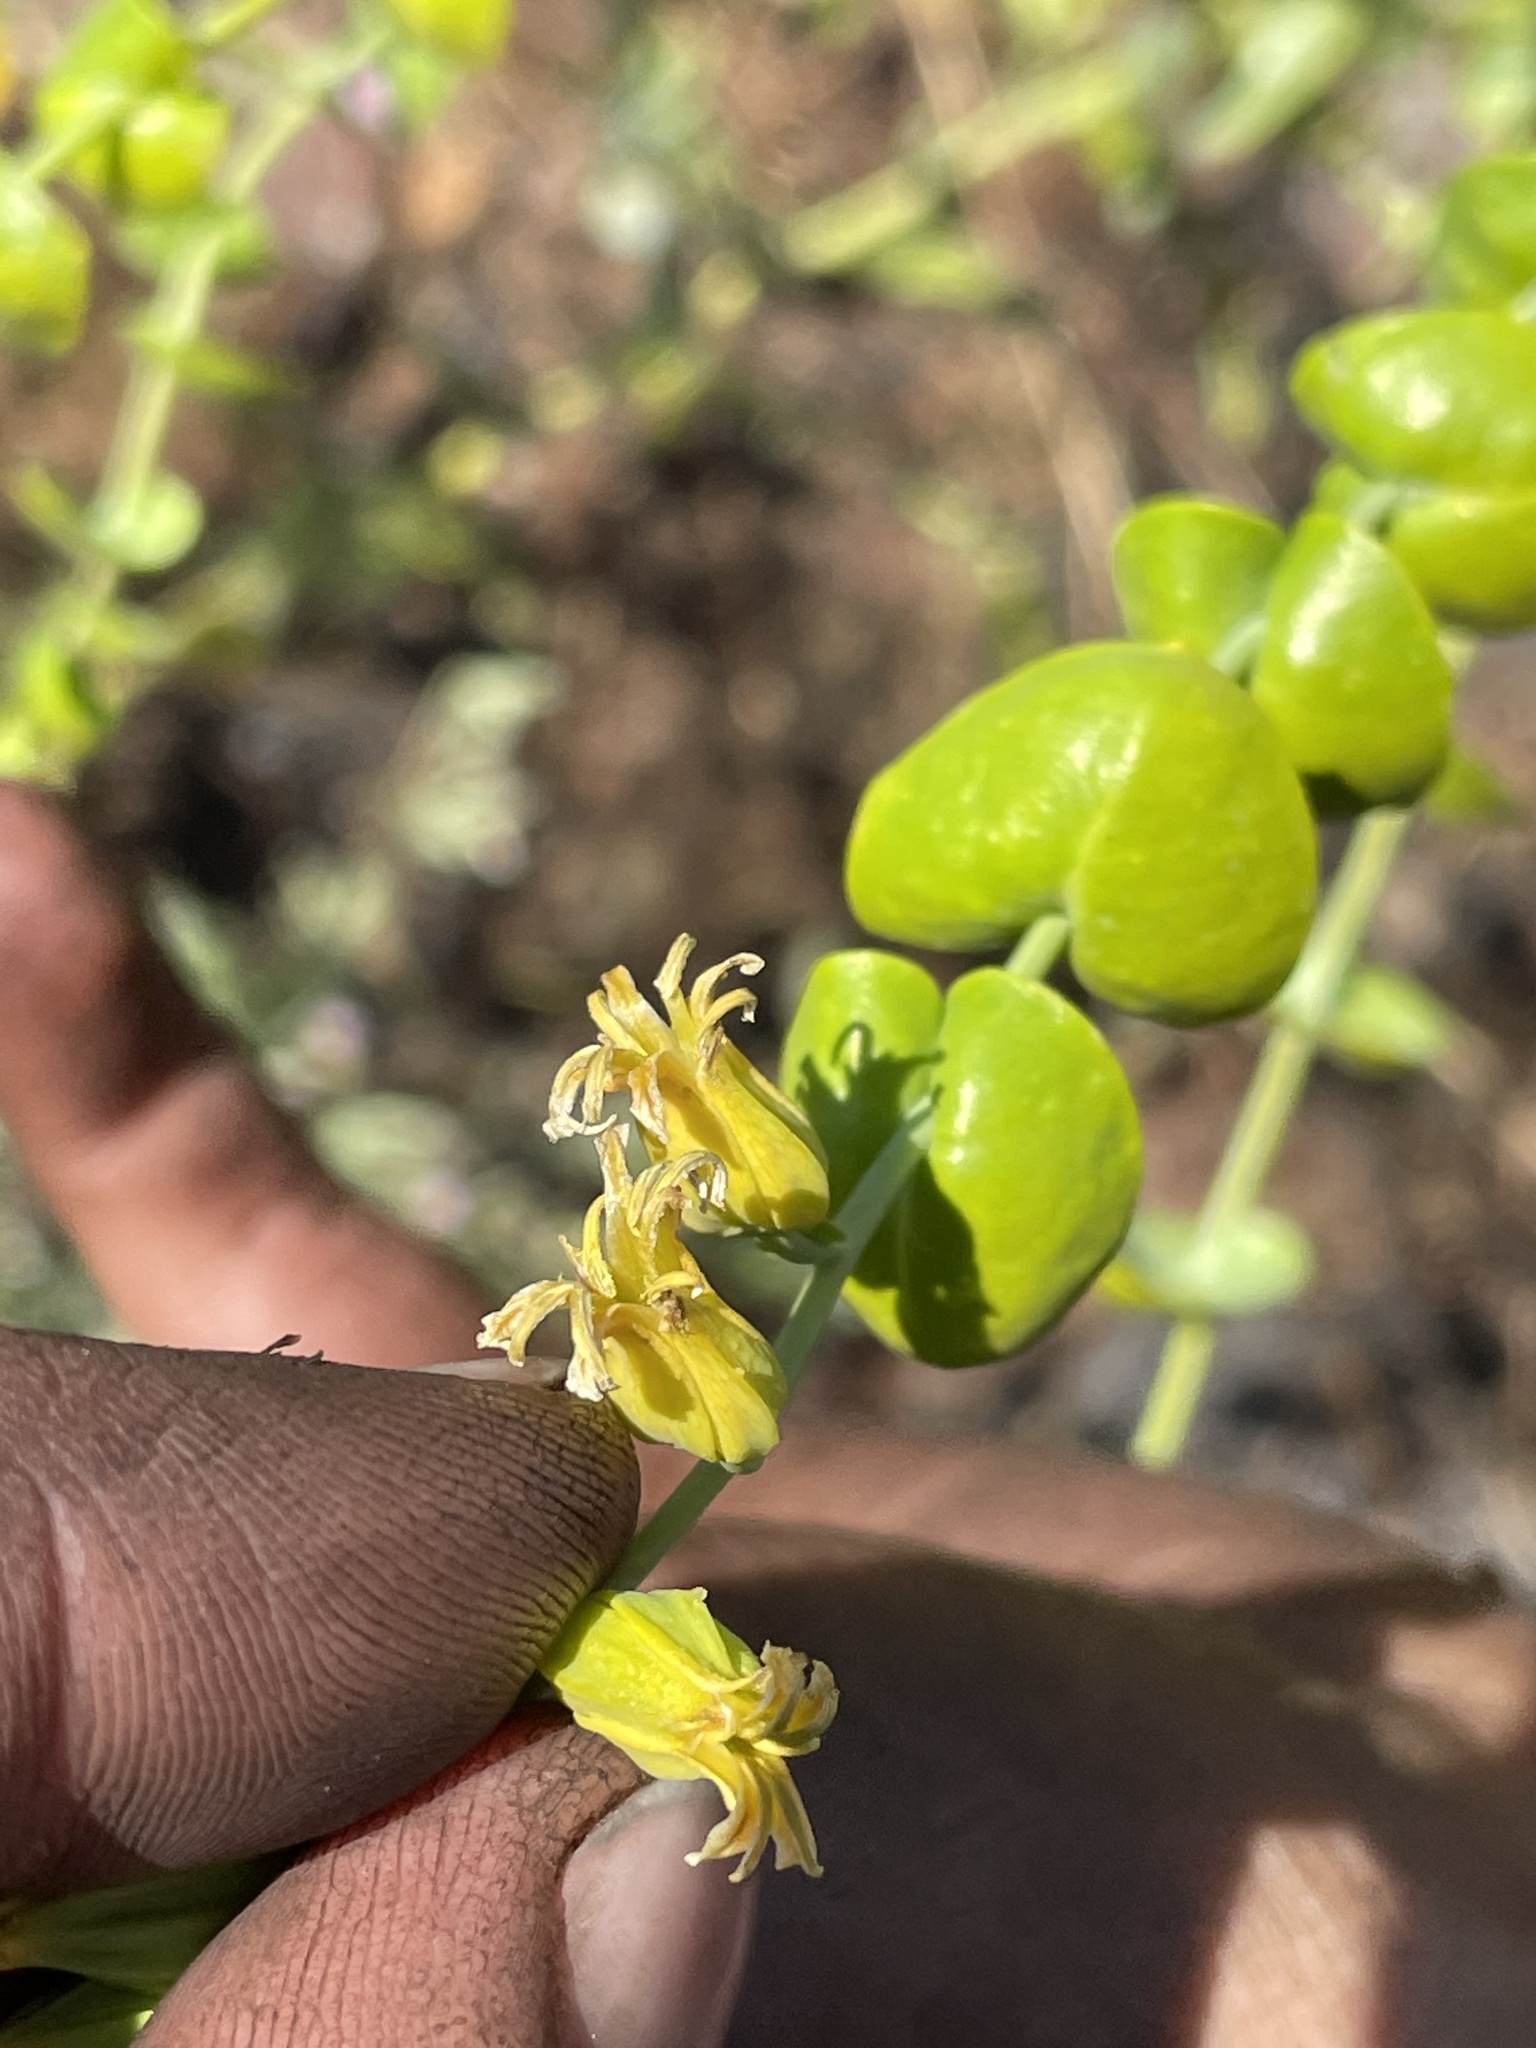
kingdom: Plantae
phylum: Tracheophyta
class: Magnoliopsida
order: Brassicales
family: Brassicaceae
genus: Streptanthus
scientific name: Streptanthus tortuosus
